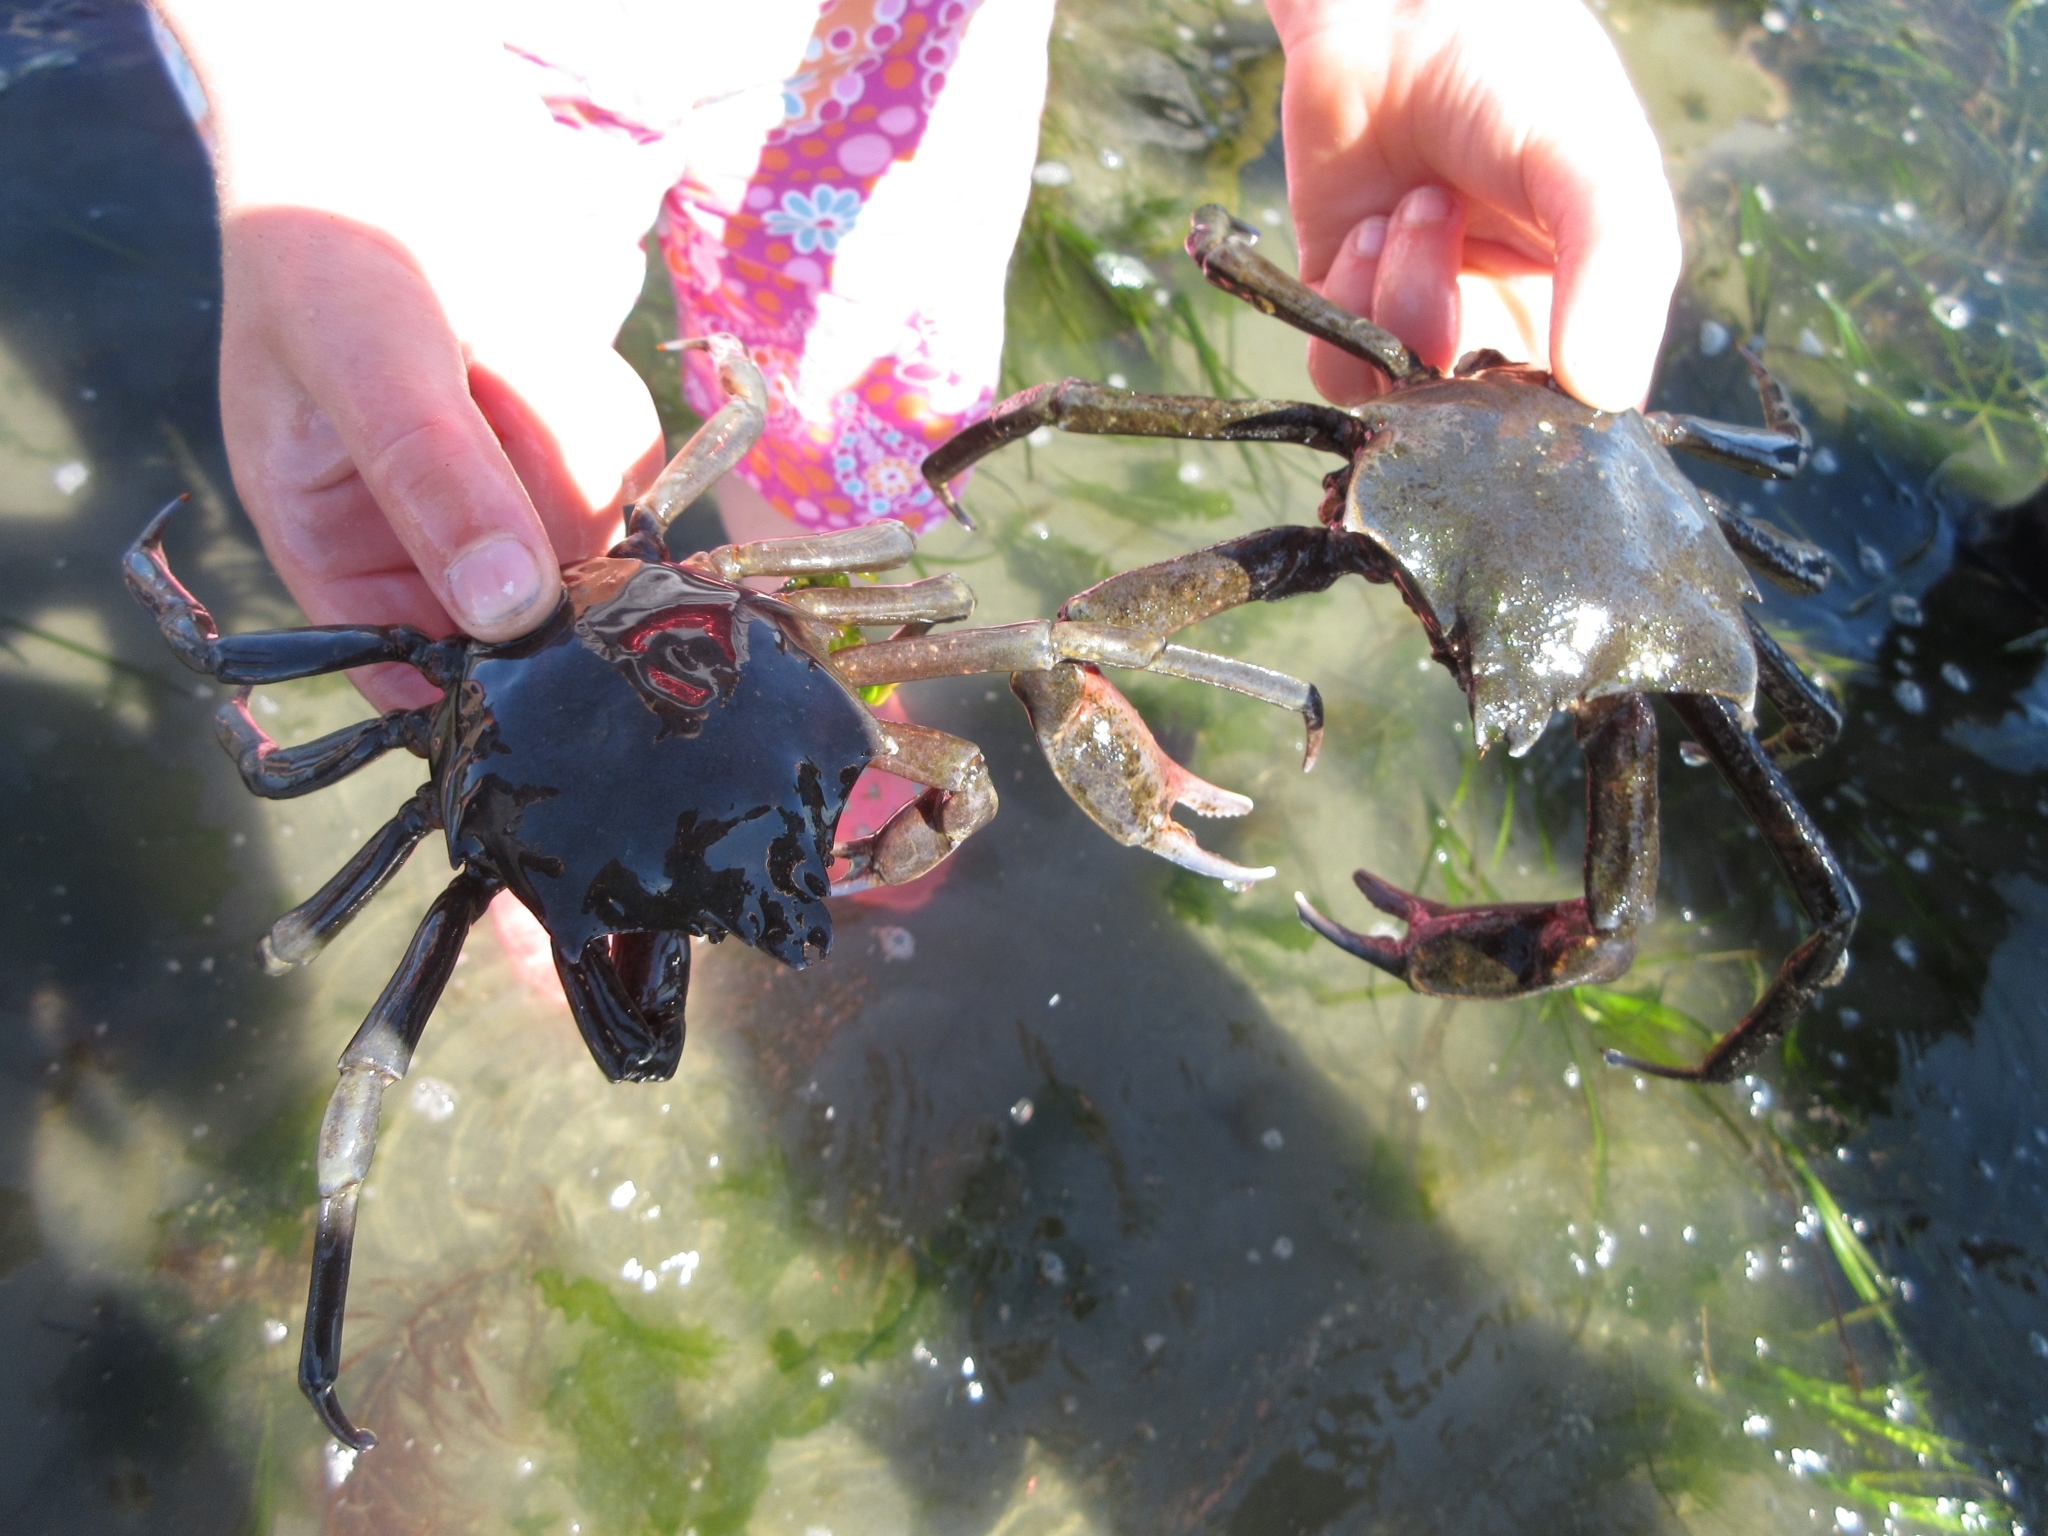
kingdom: Animalia
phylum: Arthropoda
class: Malacostraca
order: Decapoda
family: Epialtidae
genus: Pugettia
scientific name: Pugettia producta
